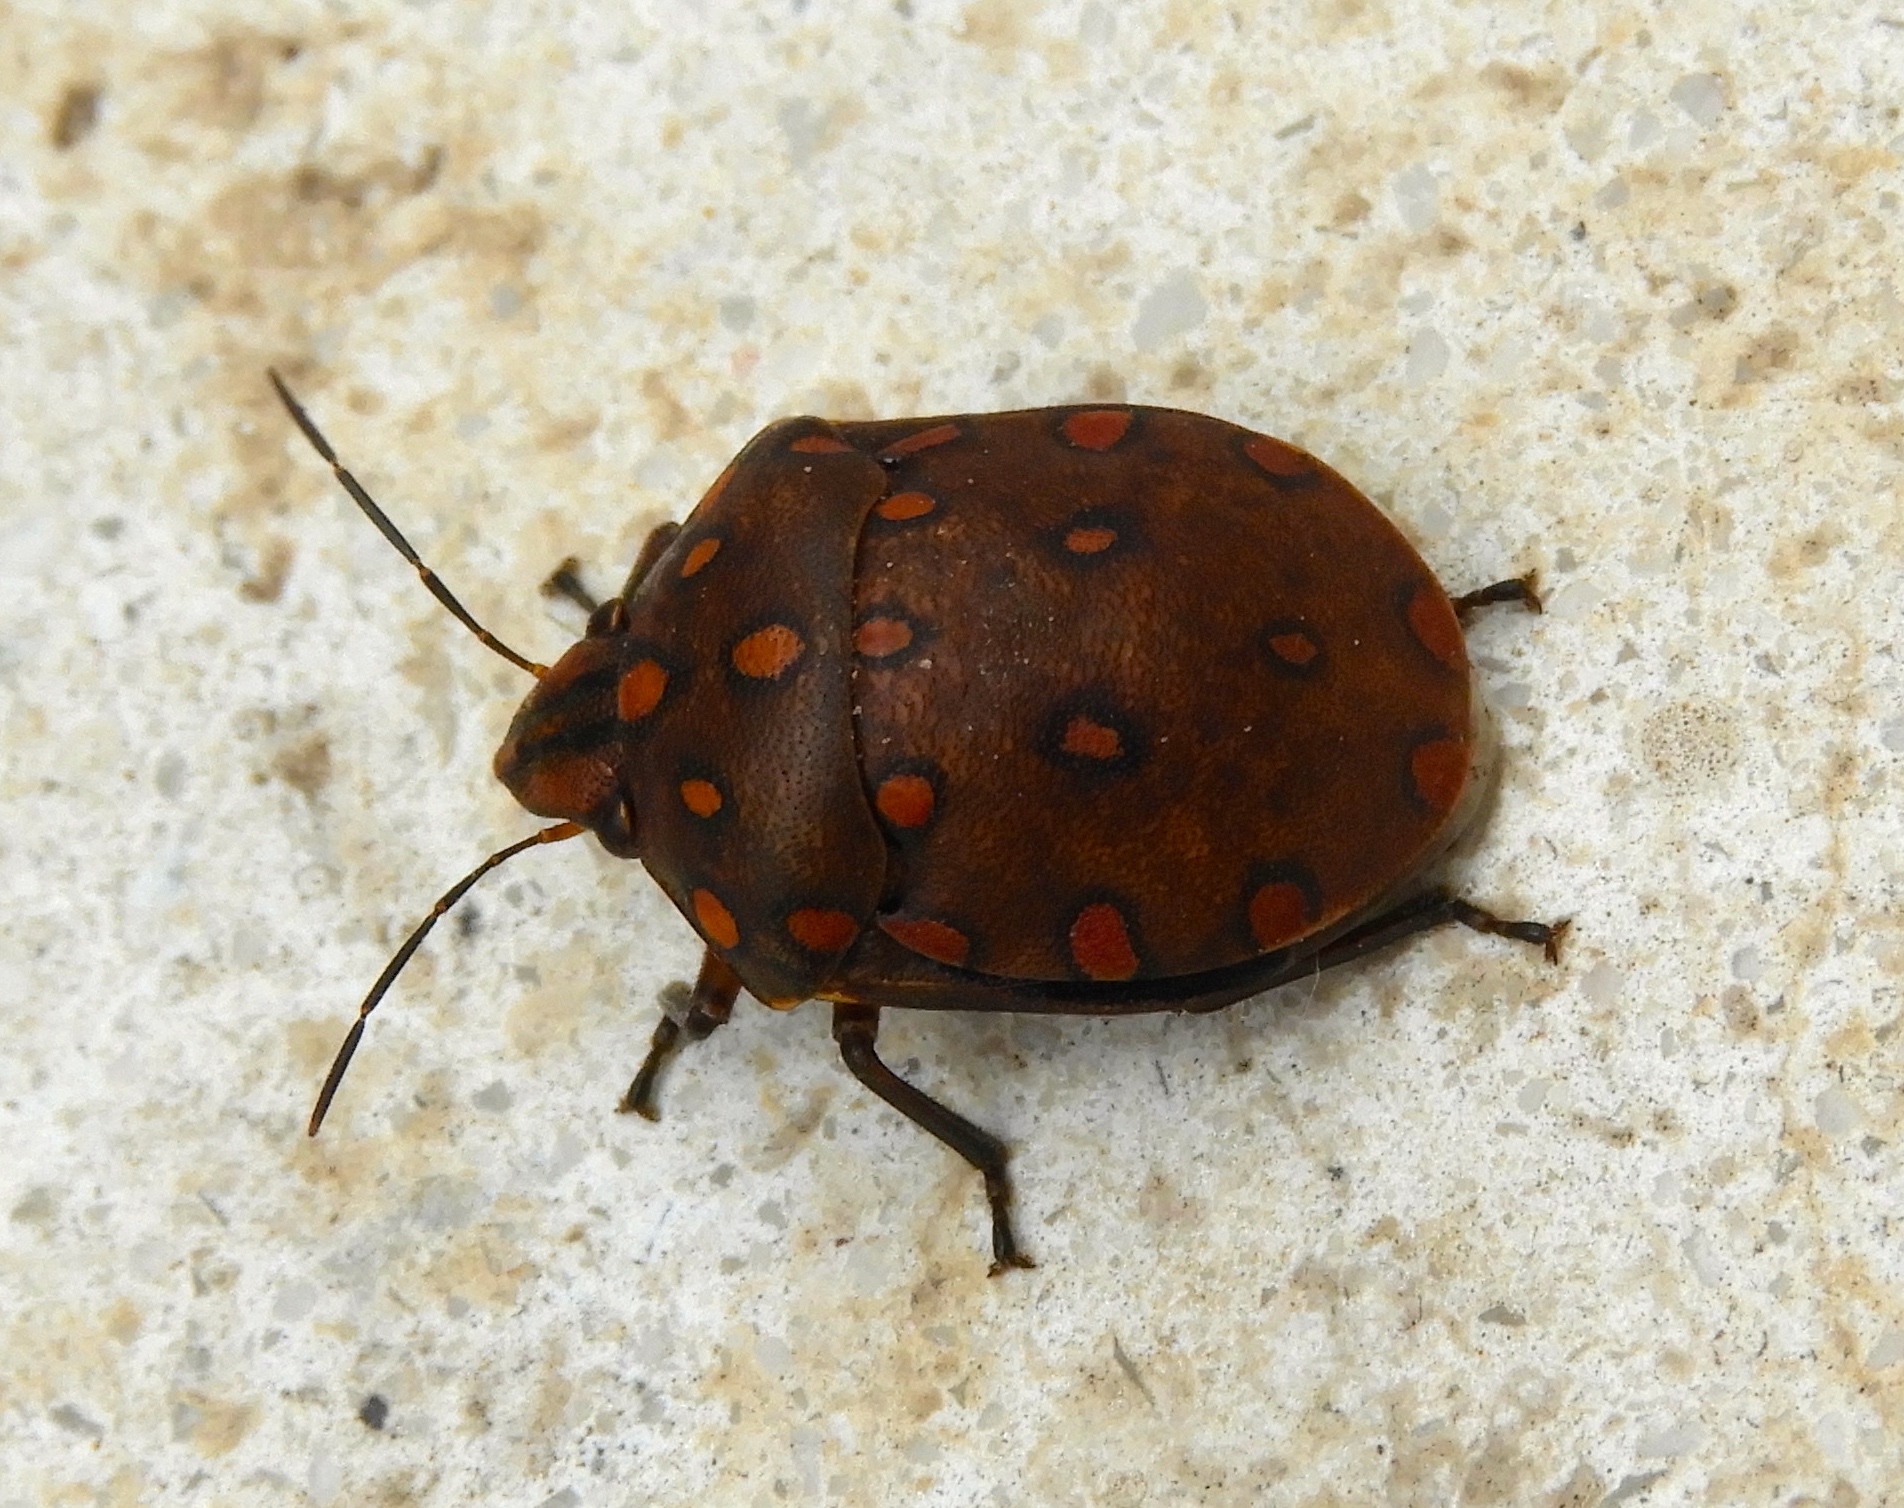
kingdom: Animalia
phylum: Arthropoda
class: Insecta
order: Hemiptera
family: Scutelleridae
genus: Pachycoris
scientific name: Pachycoris
